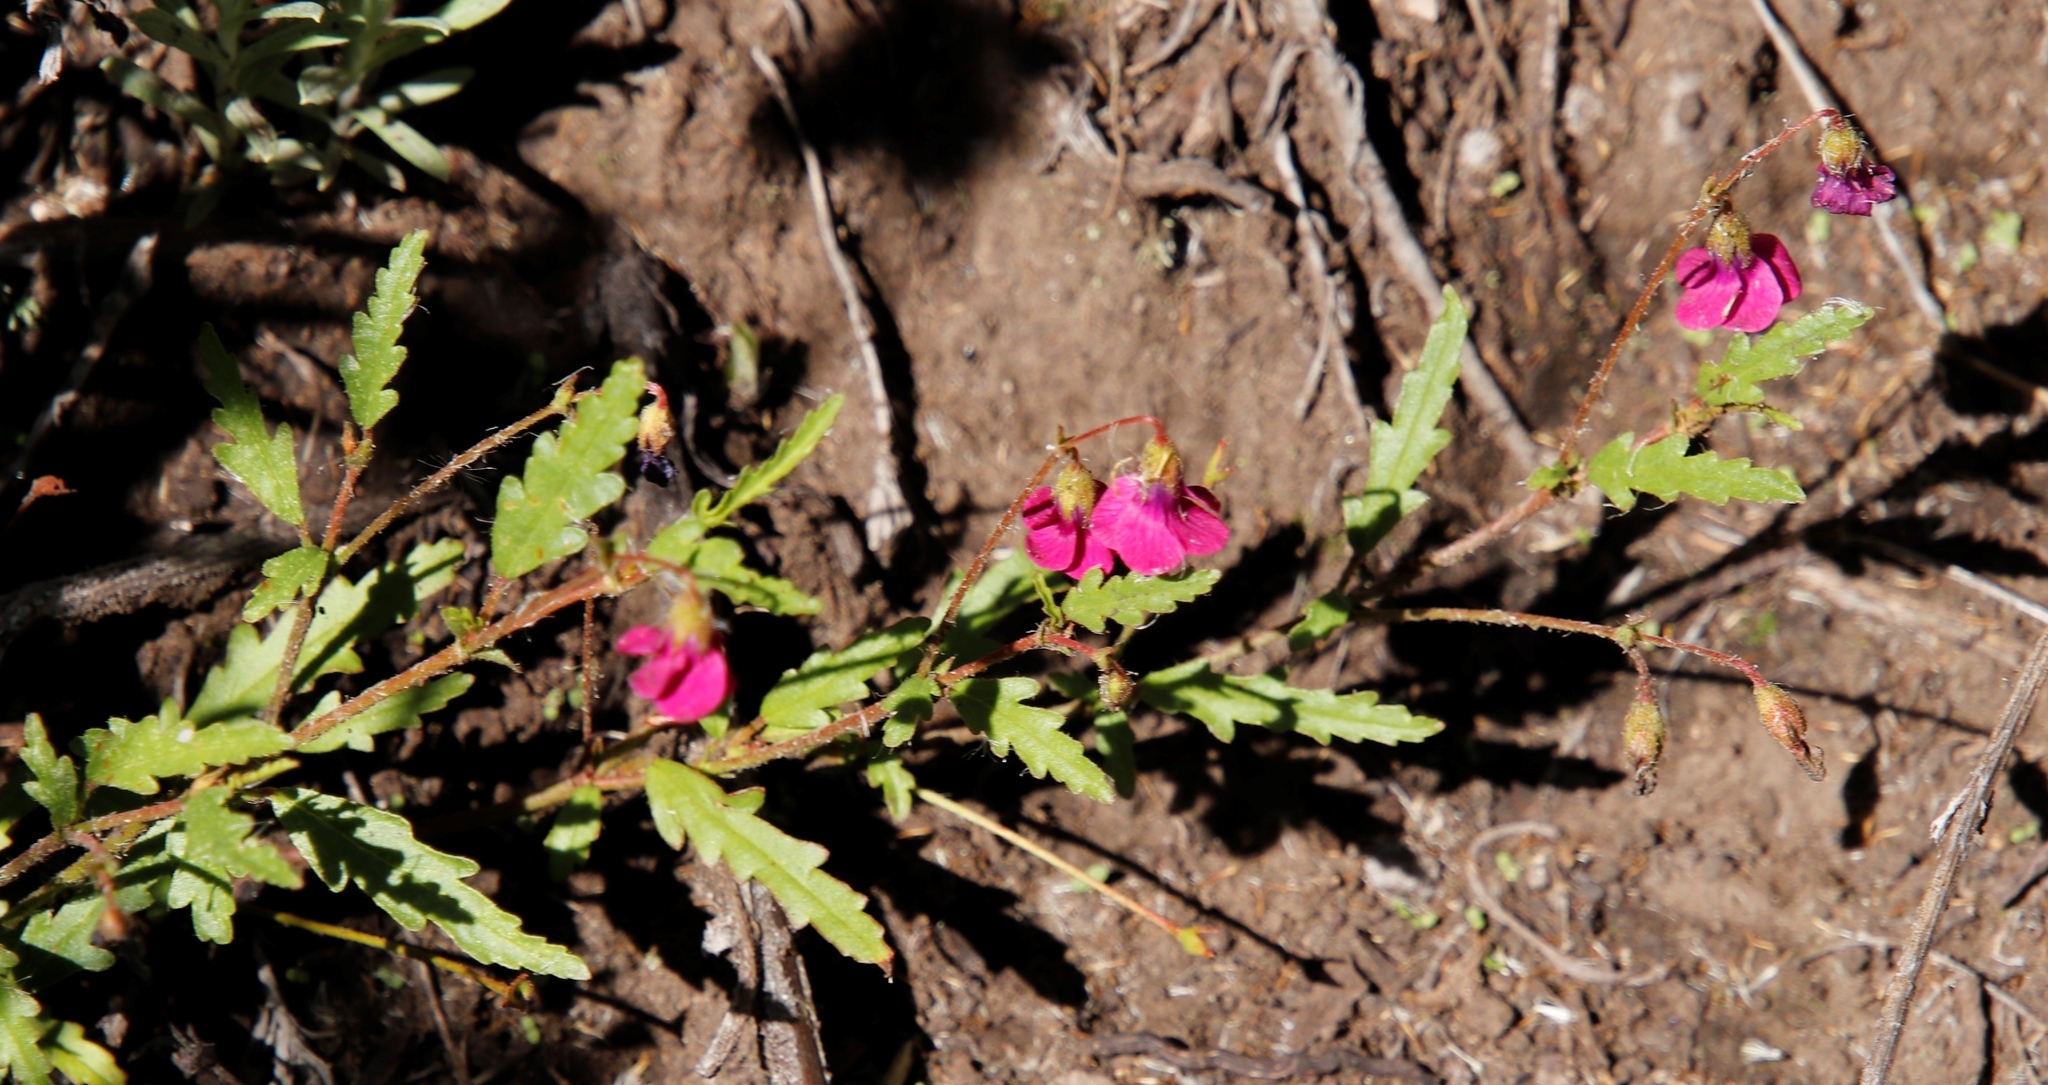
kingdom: Plantae
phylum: Tracheophyta
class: Magnoliopsida
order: Malvales
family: Malvaceae
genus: Hermannia
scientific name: Hermannia coccocarpa
